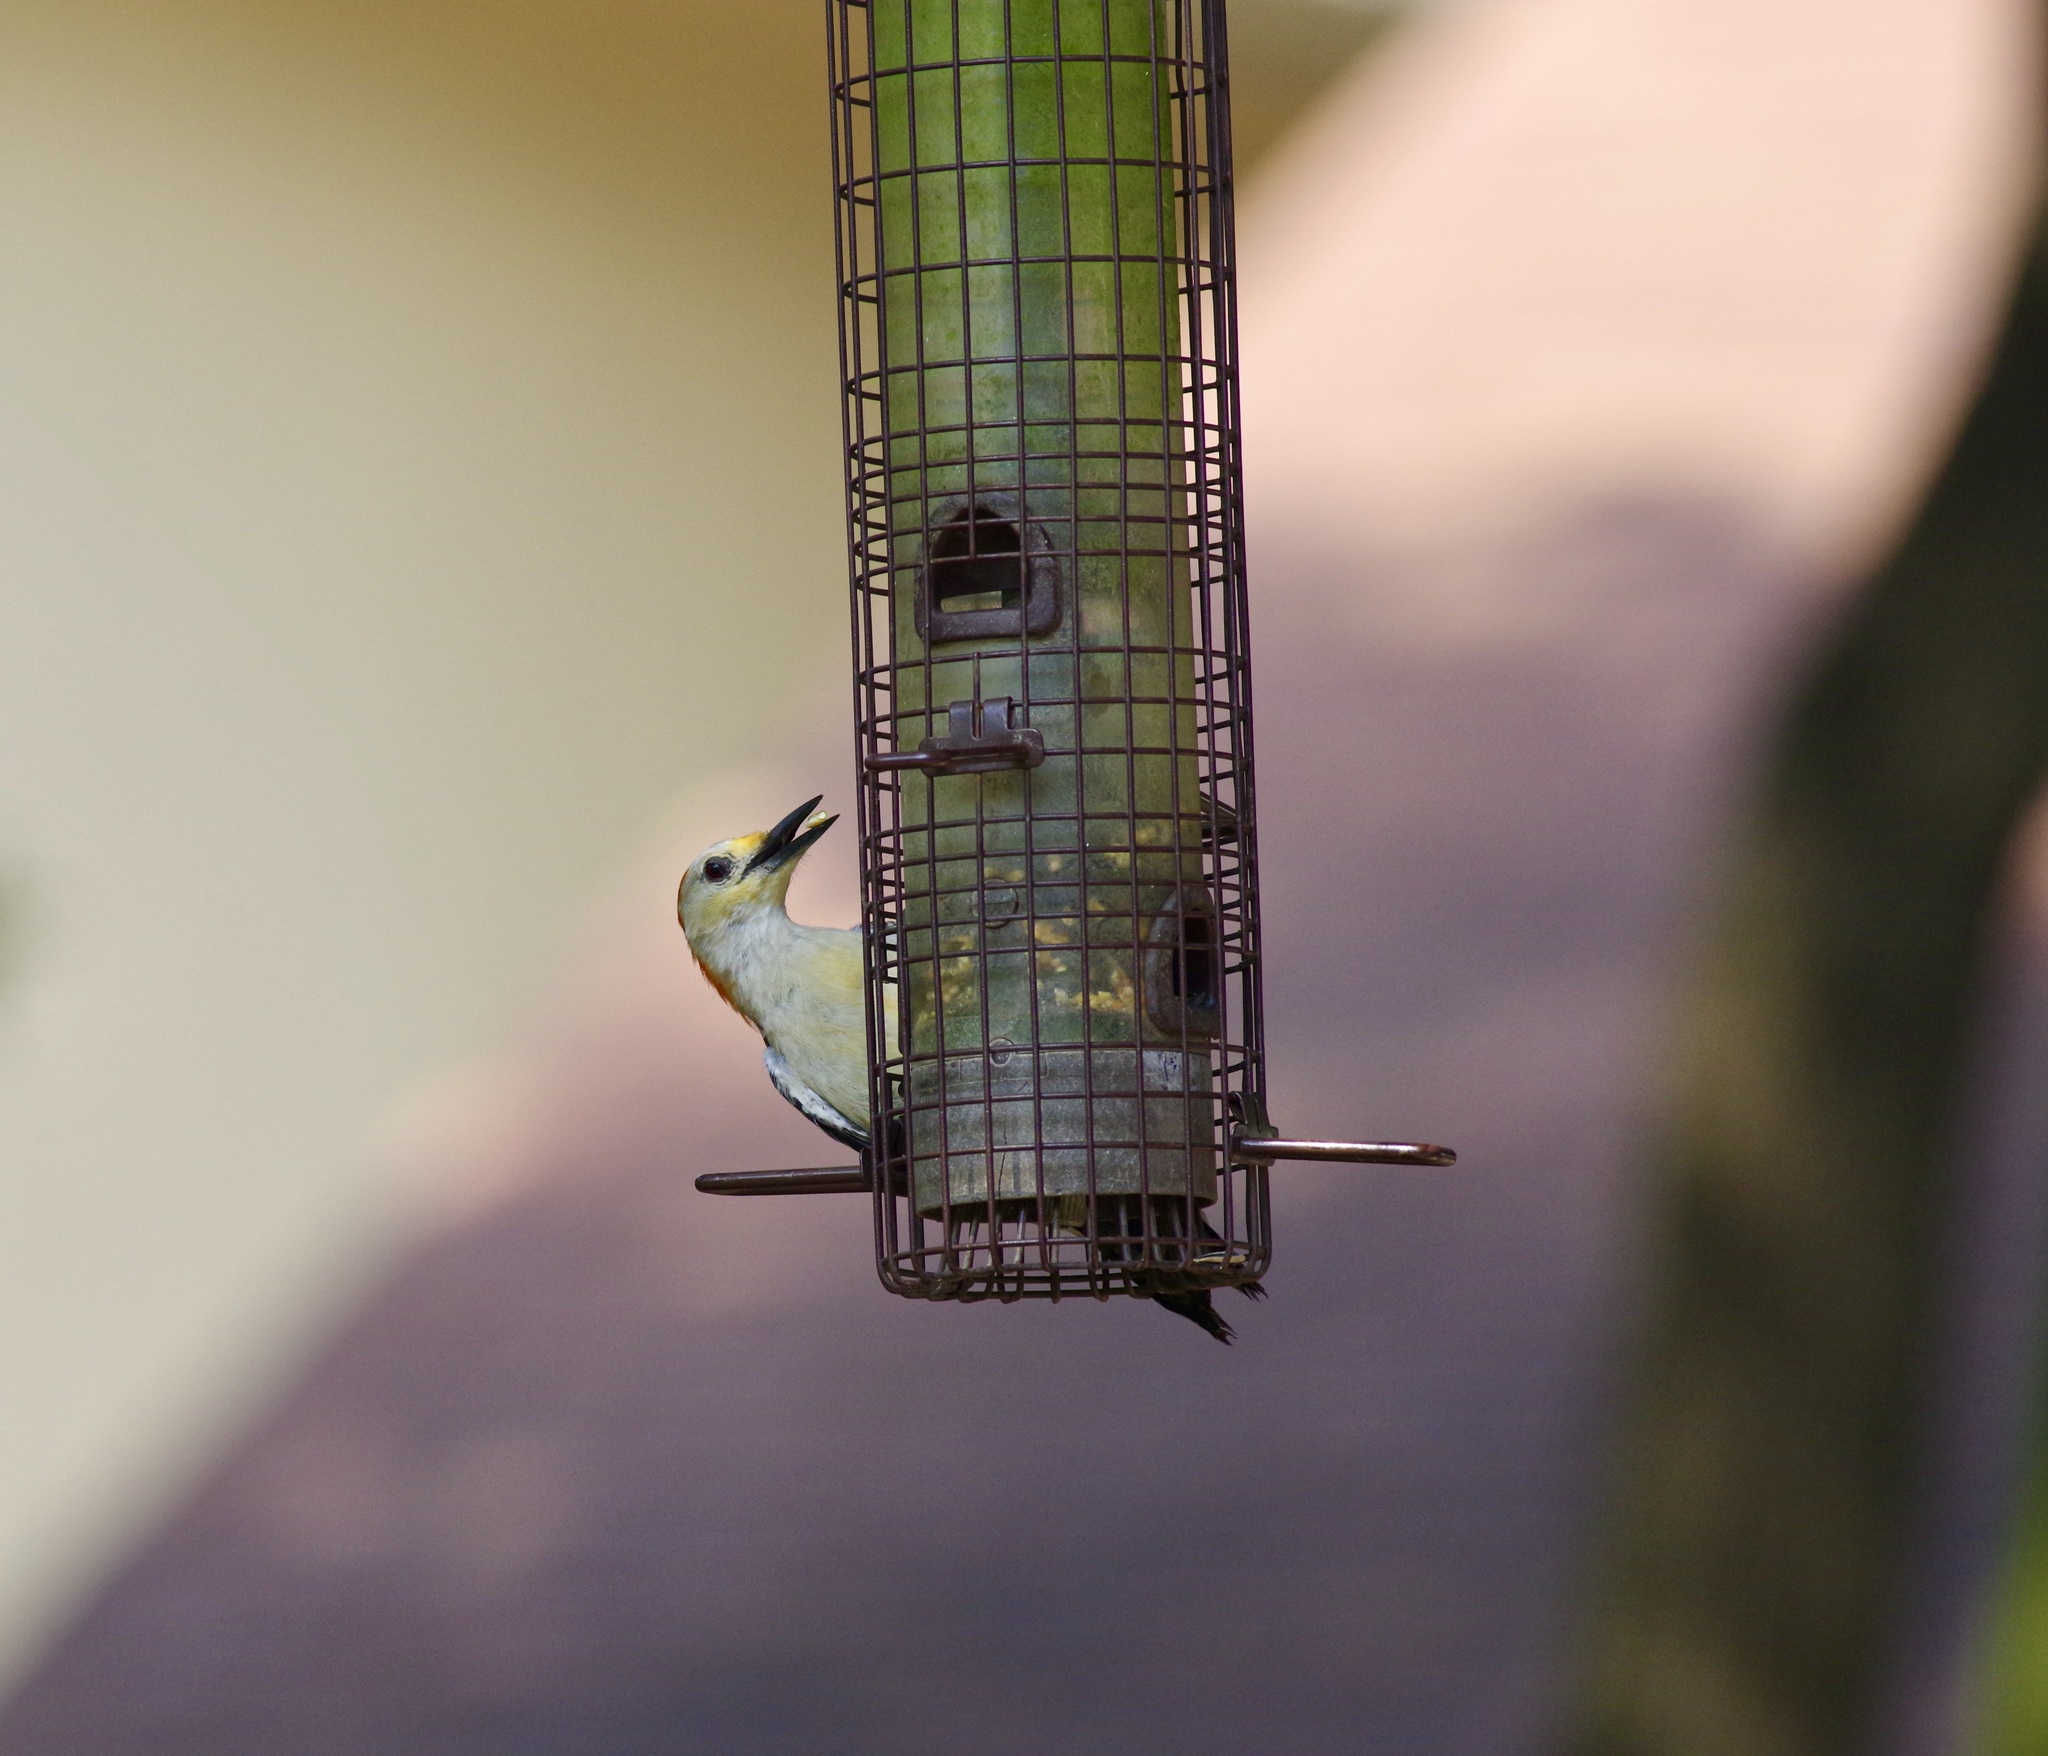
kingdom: Animalia
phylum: Chordata
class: Aves
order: Piciformes
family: Picidae
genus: Melanerpes
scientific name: Melanerpes carolinus
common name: Red-bellied woodpecker
